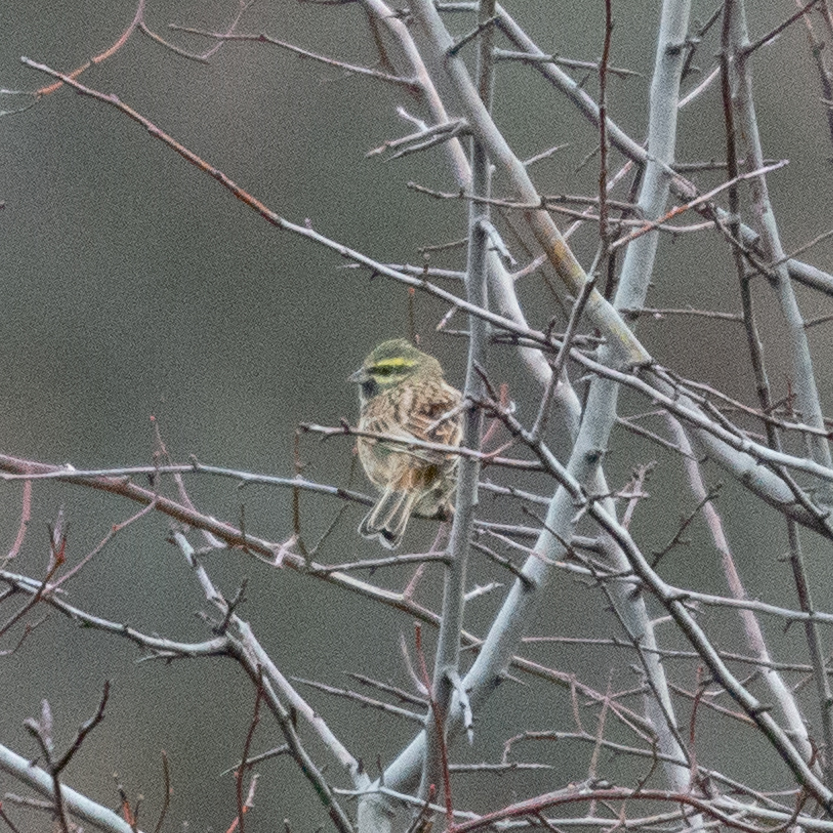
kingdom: Animalia
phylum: Chordata
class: Aves
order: Passeriformes
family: Emberizidae
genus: Emberiza
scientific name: Emberiza cirlus
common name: Cirl bunting
